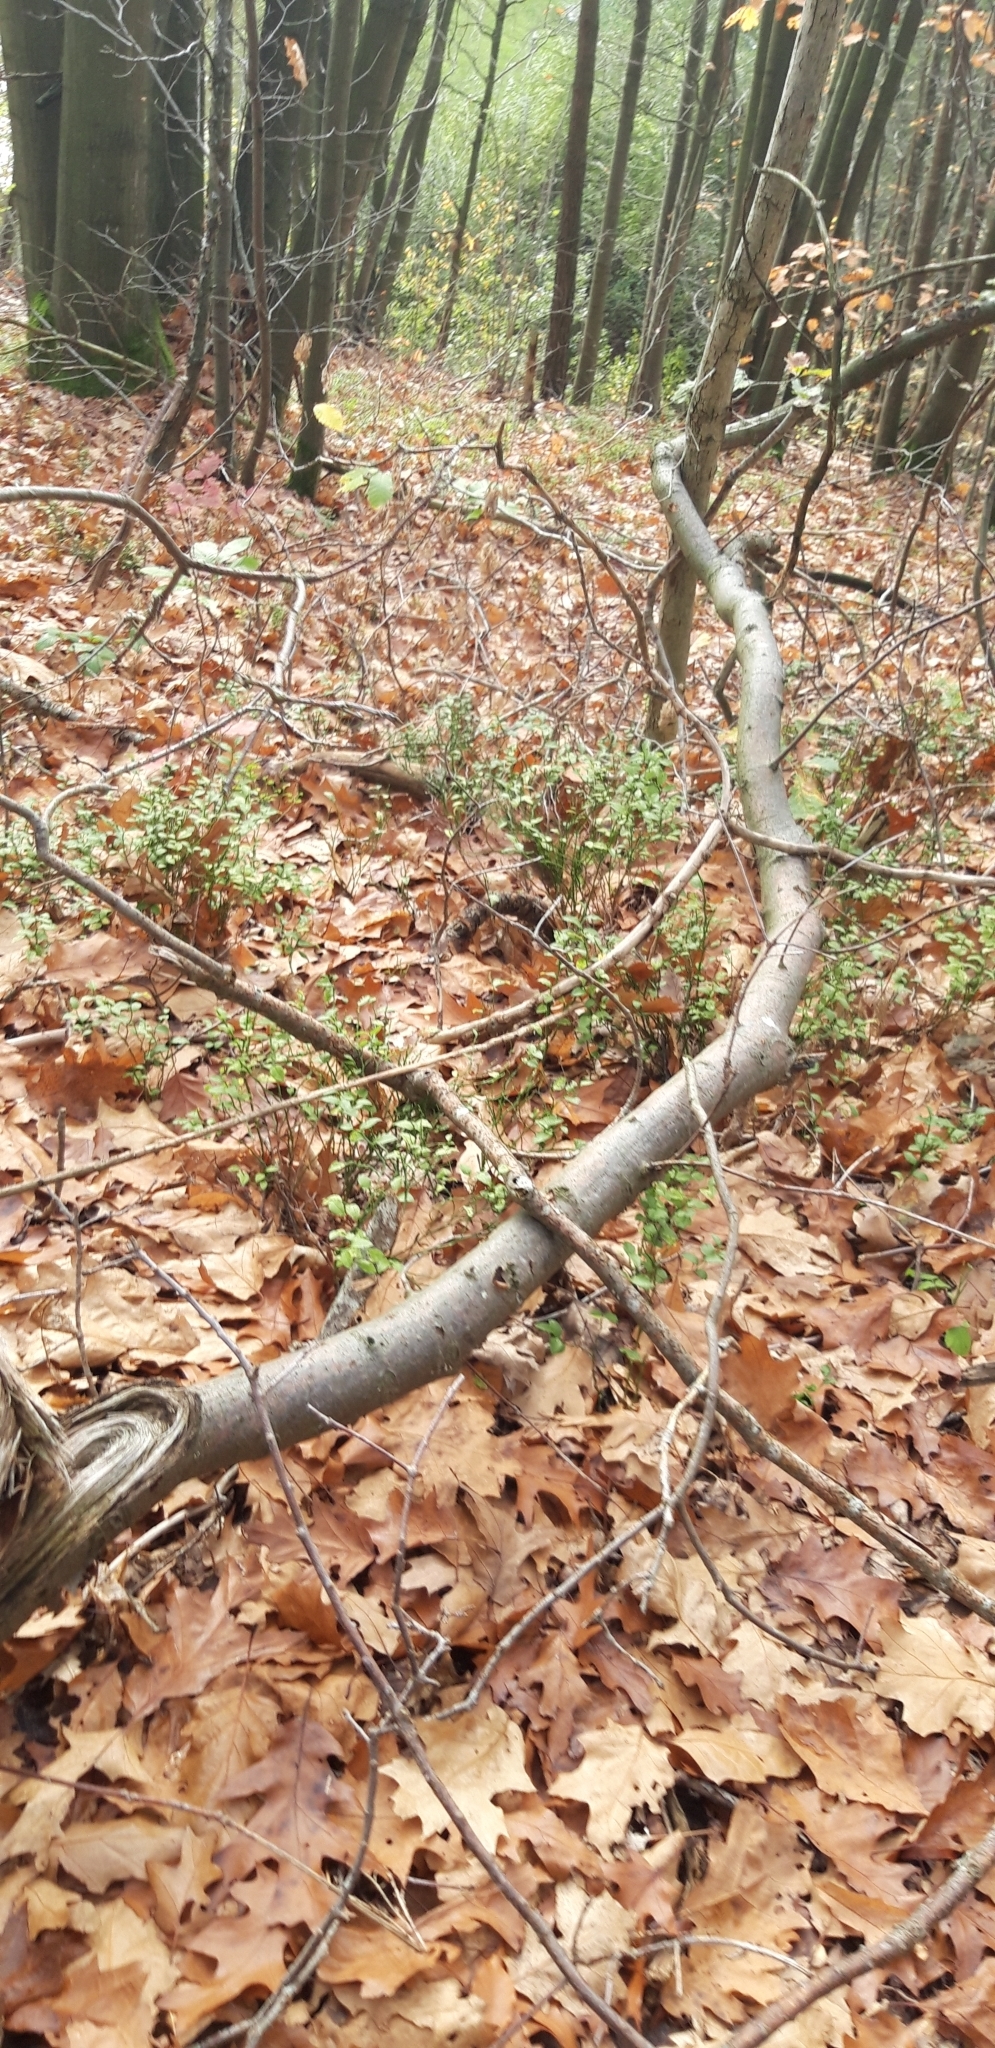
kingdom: Plantae
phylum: Tracheophyta
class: Magnoliopsida
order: Ericales
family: Ericaceae
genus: Vaccinium
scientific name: Vaccinium myrtillus
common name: Bilberry
